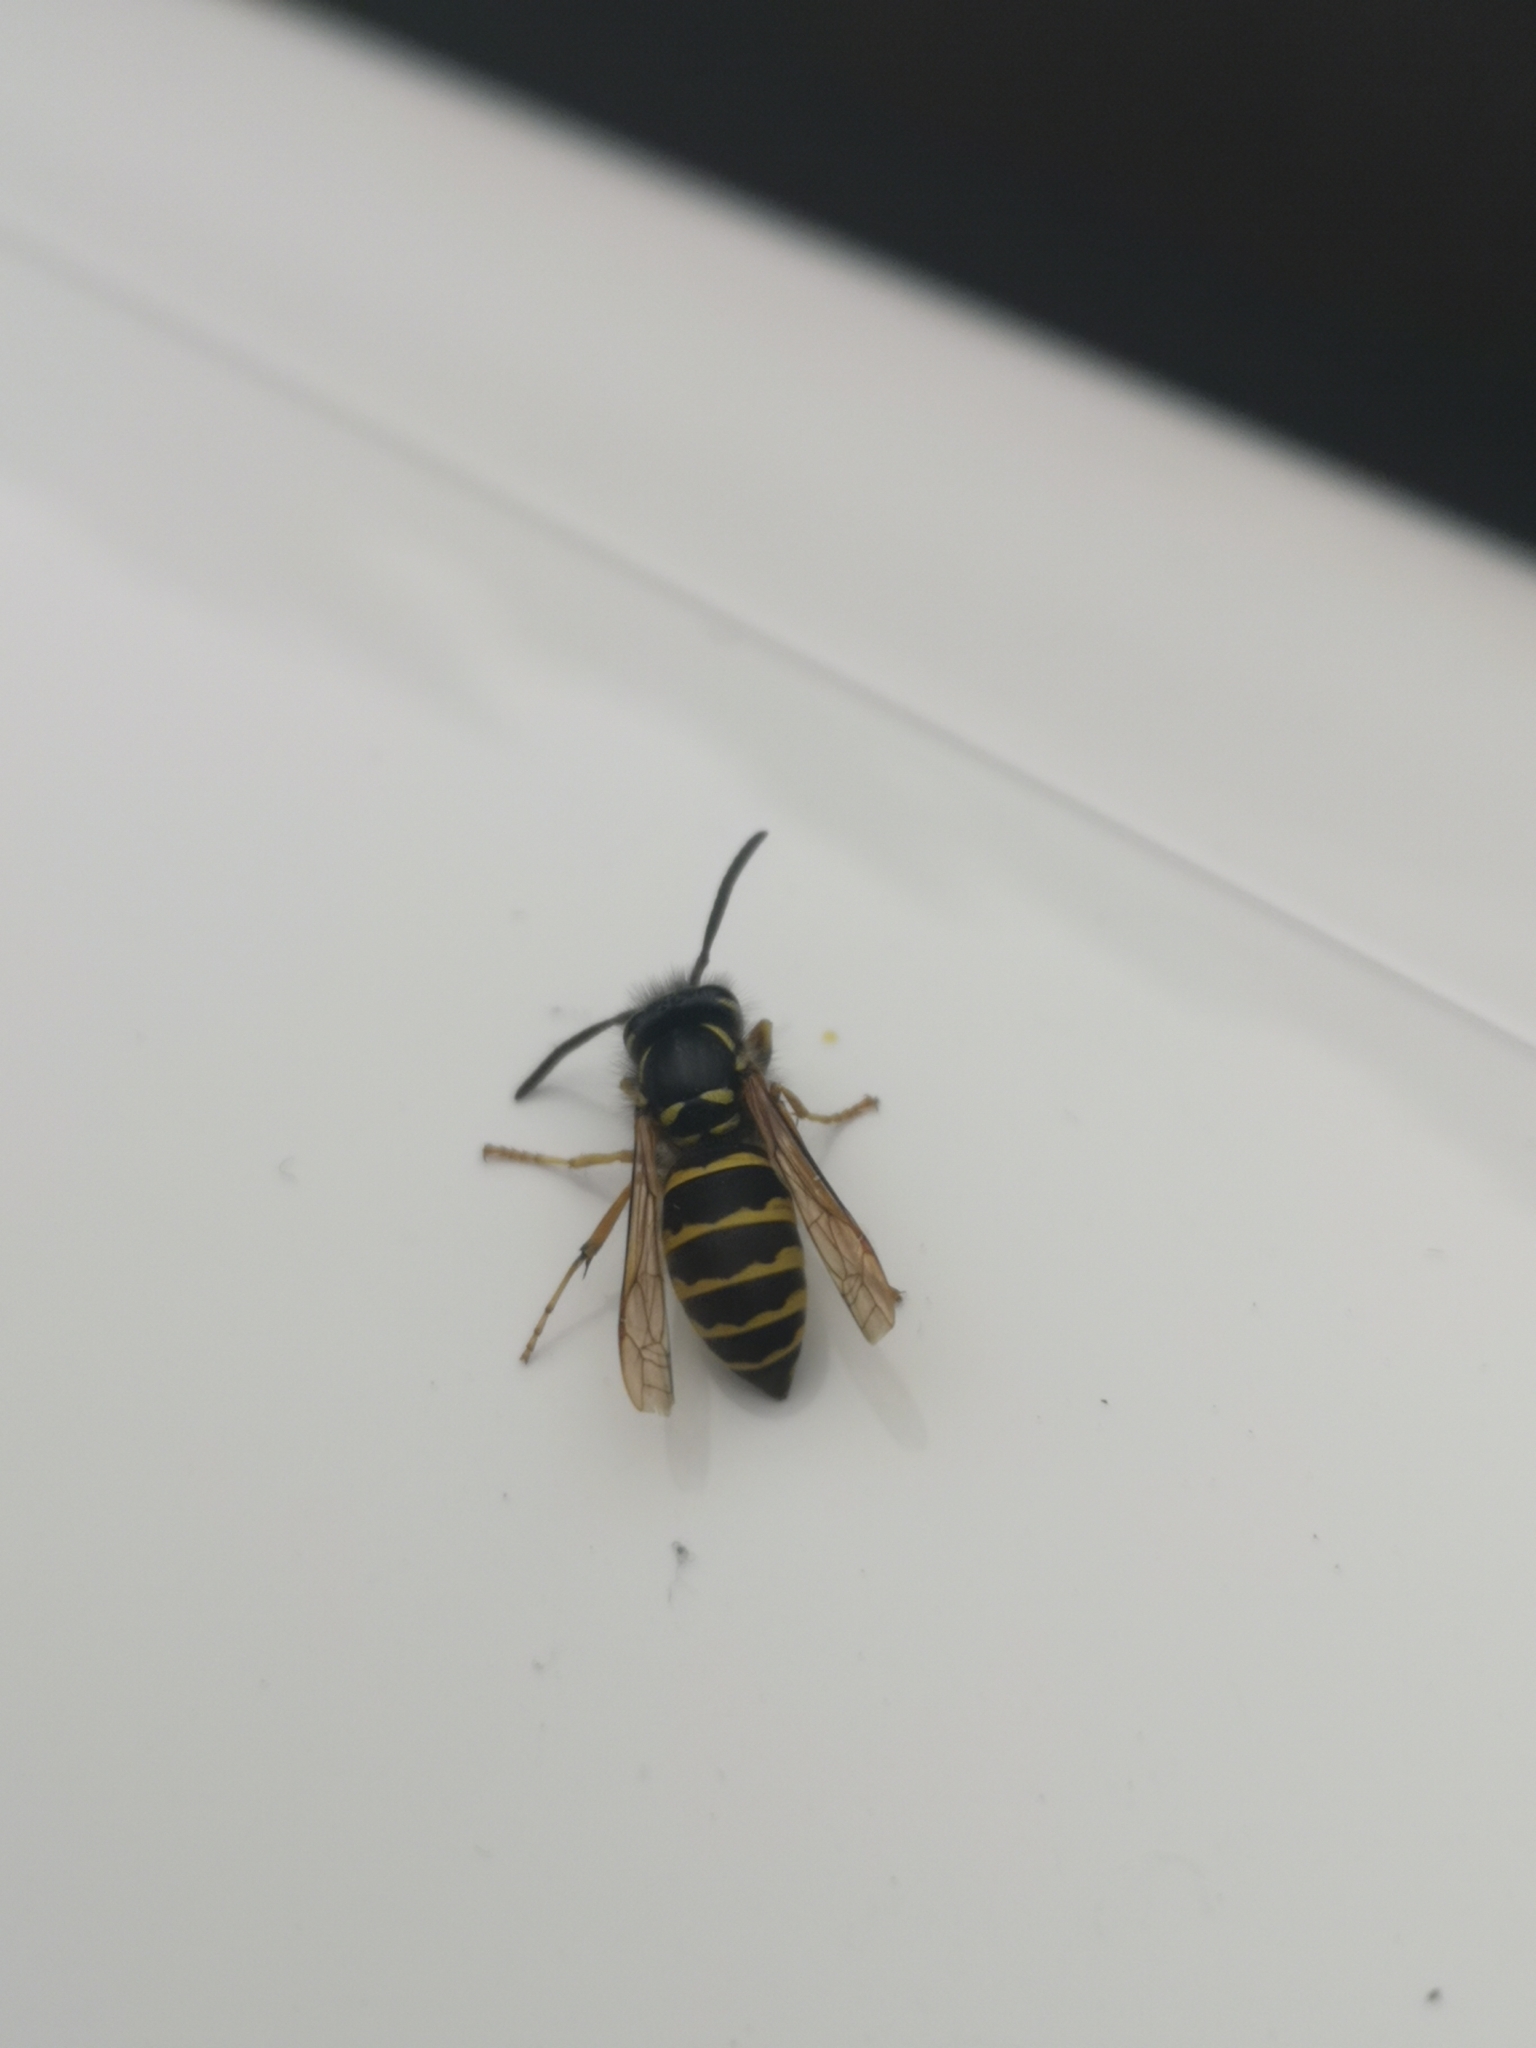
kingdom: Animalia
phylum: Arthropoda
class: Insecta
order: Hymenoptera
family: Vespidae
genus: Vespula
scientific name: Vespula vulgaris
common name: Common wasp
